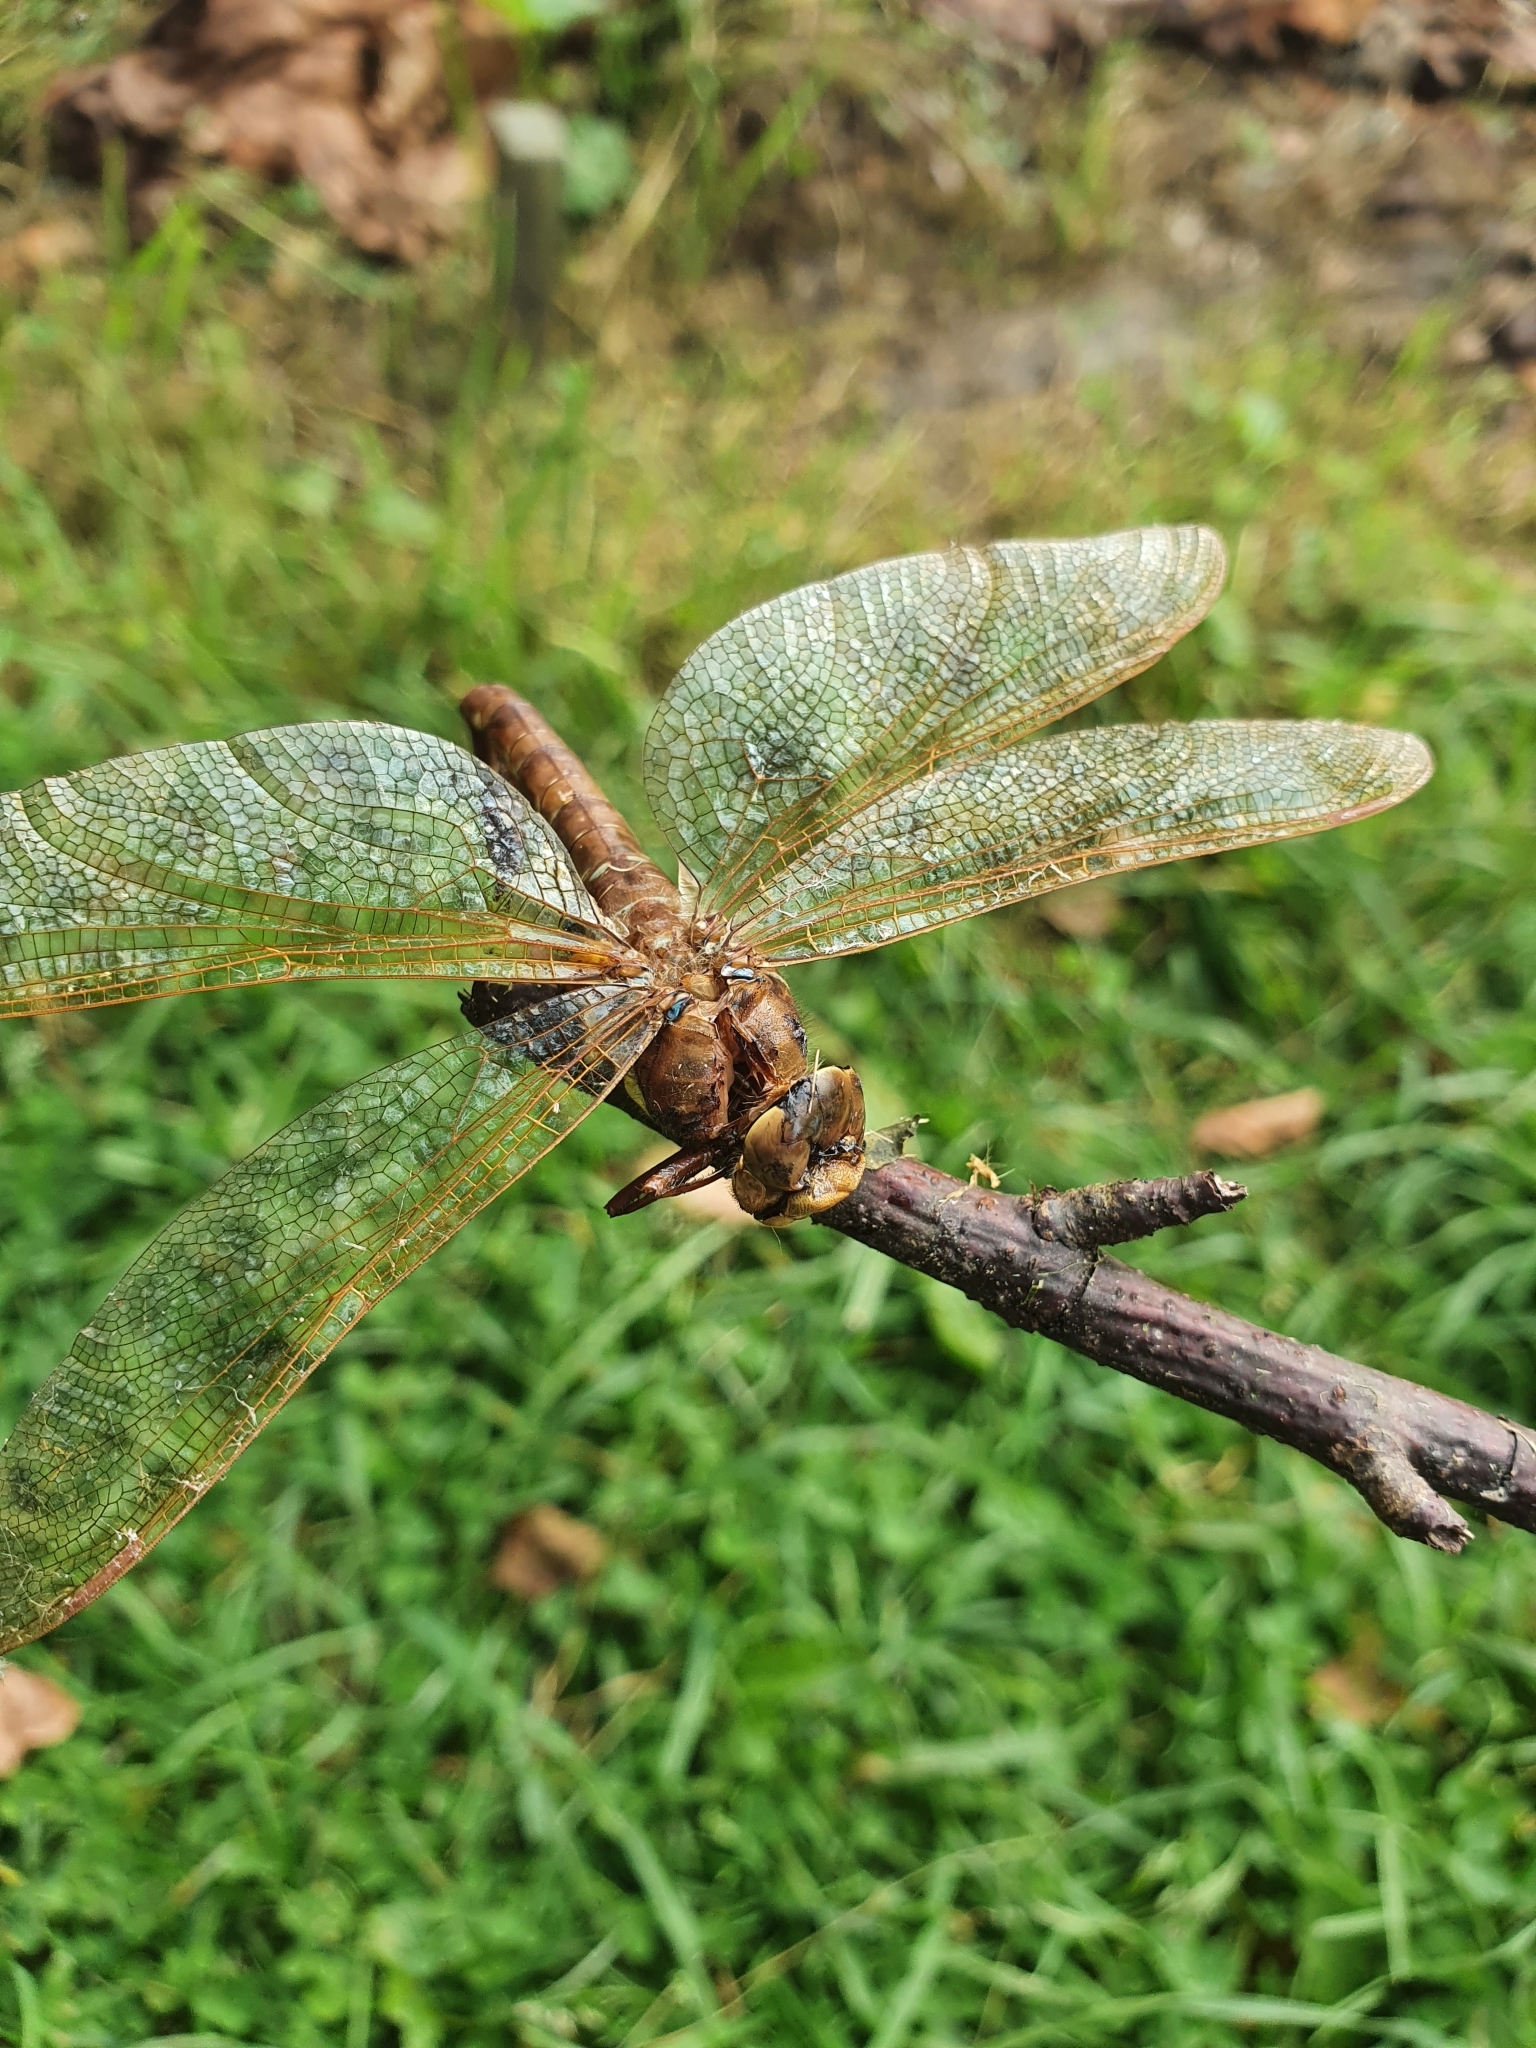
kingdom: Animalia
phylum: Arthropoda
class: Insecta
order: Odonata
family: Aeshnidae
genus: Aeshna
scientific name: Aeshna grandis
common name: Brown hawker
